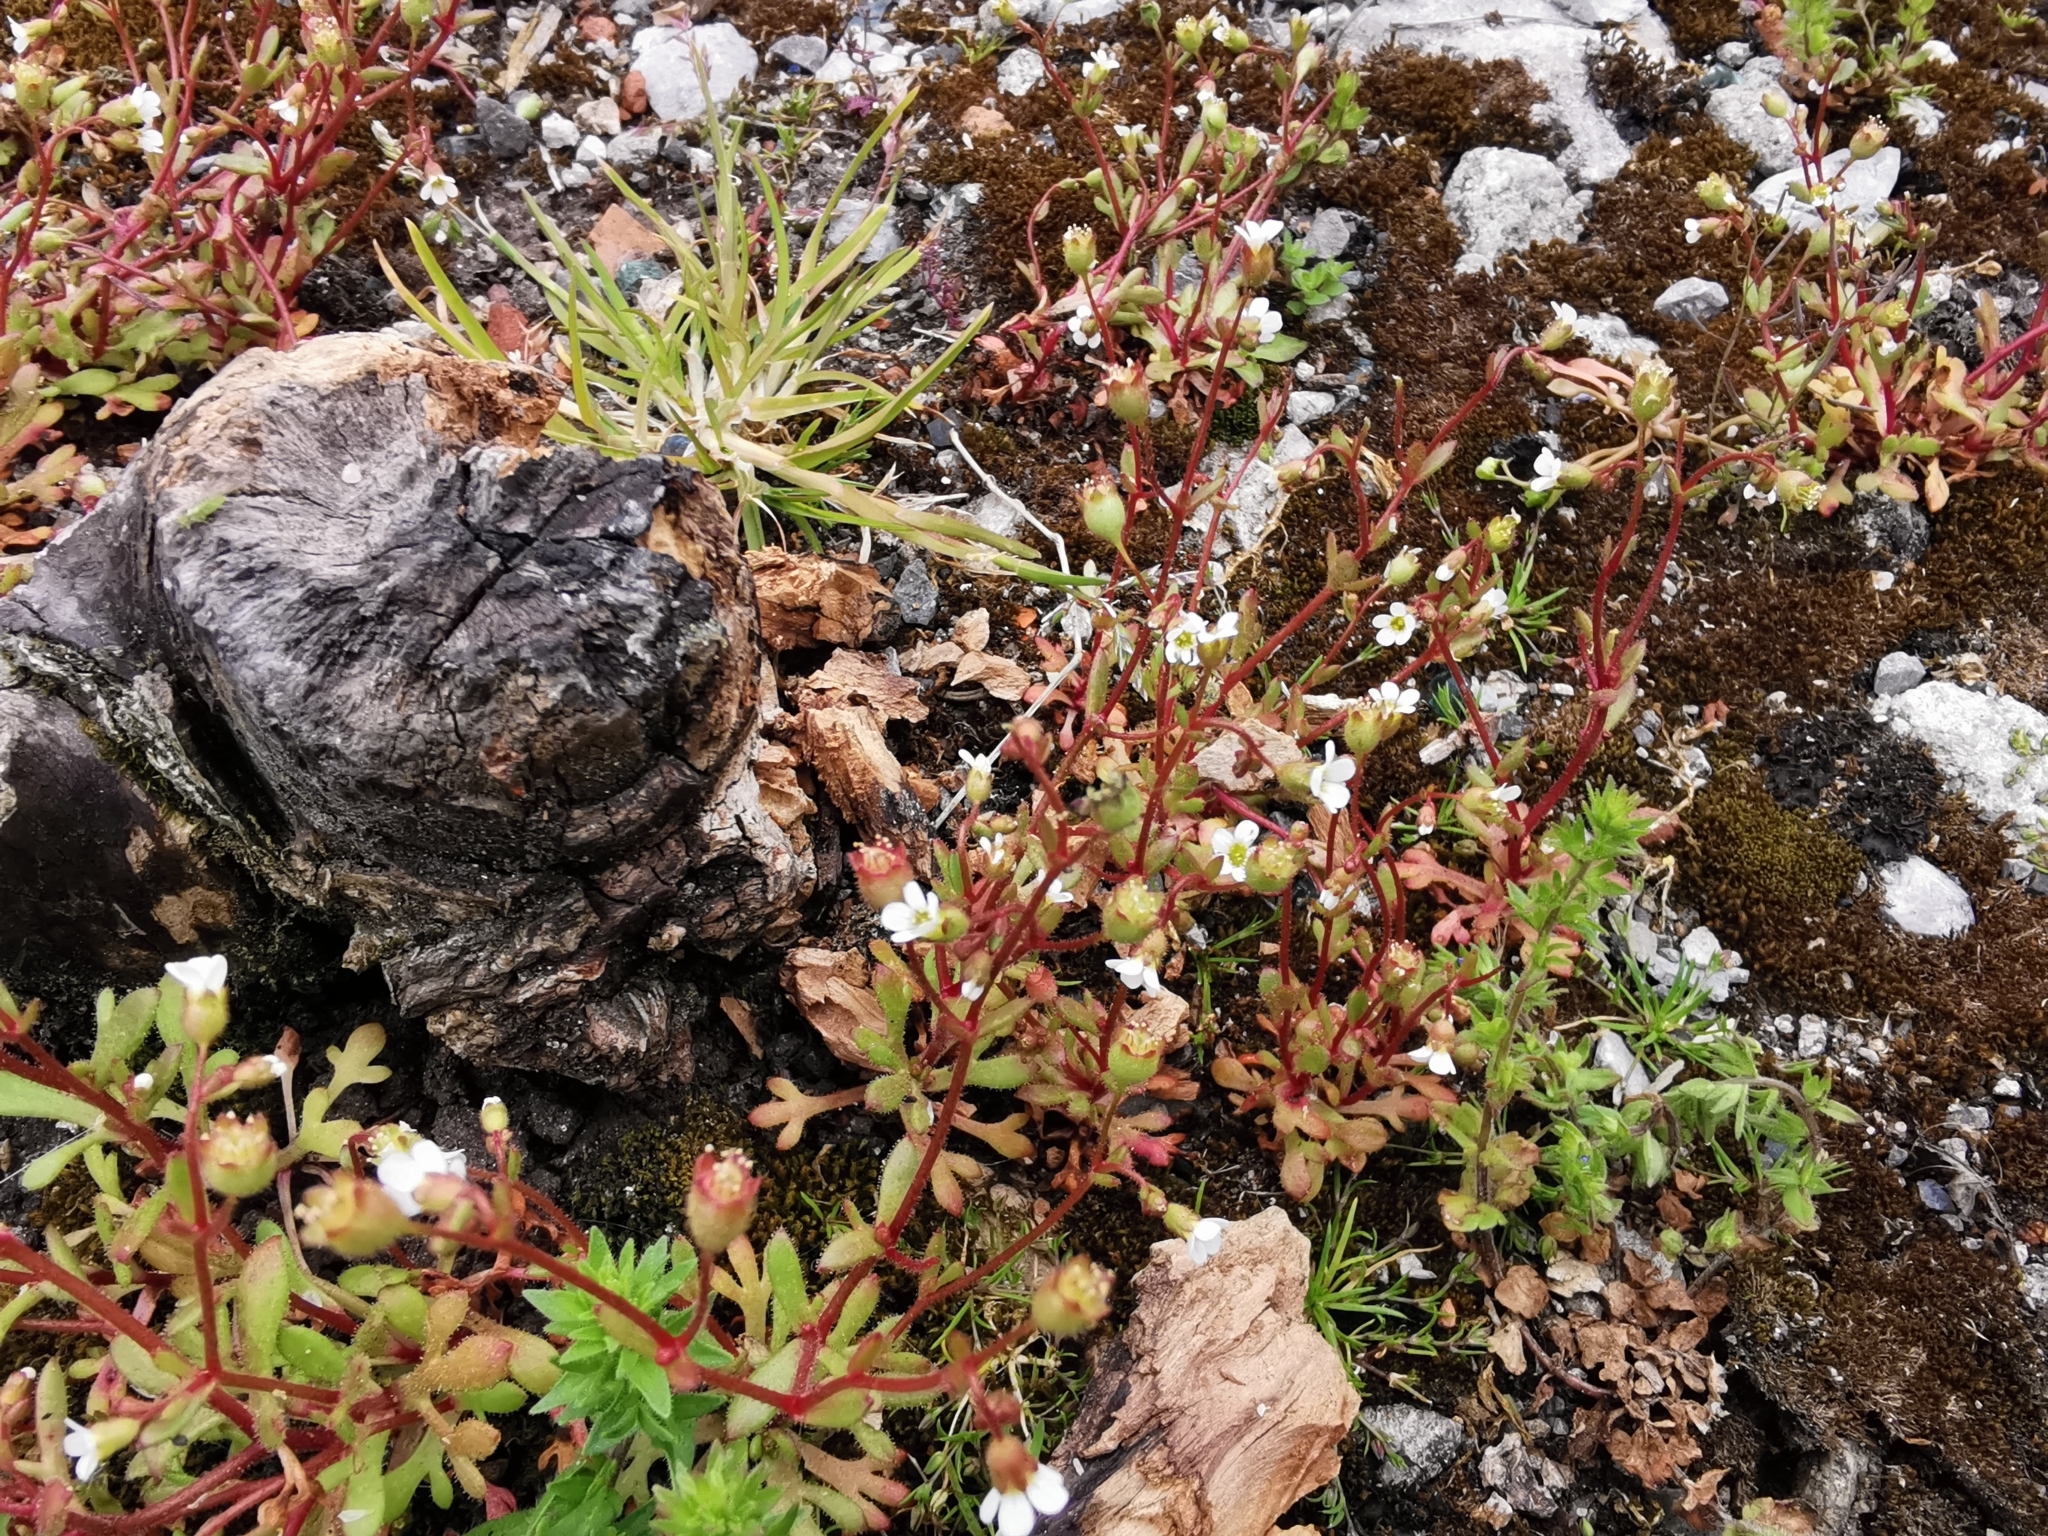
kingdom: Plantae
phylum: Tracheophyta
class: Magnoliopsida
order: Saxifragales
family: Saxifragaceae
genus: Saxifraga
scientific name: Saxifraga tridactylites
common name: Rue-leaved saxifrage
